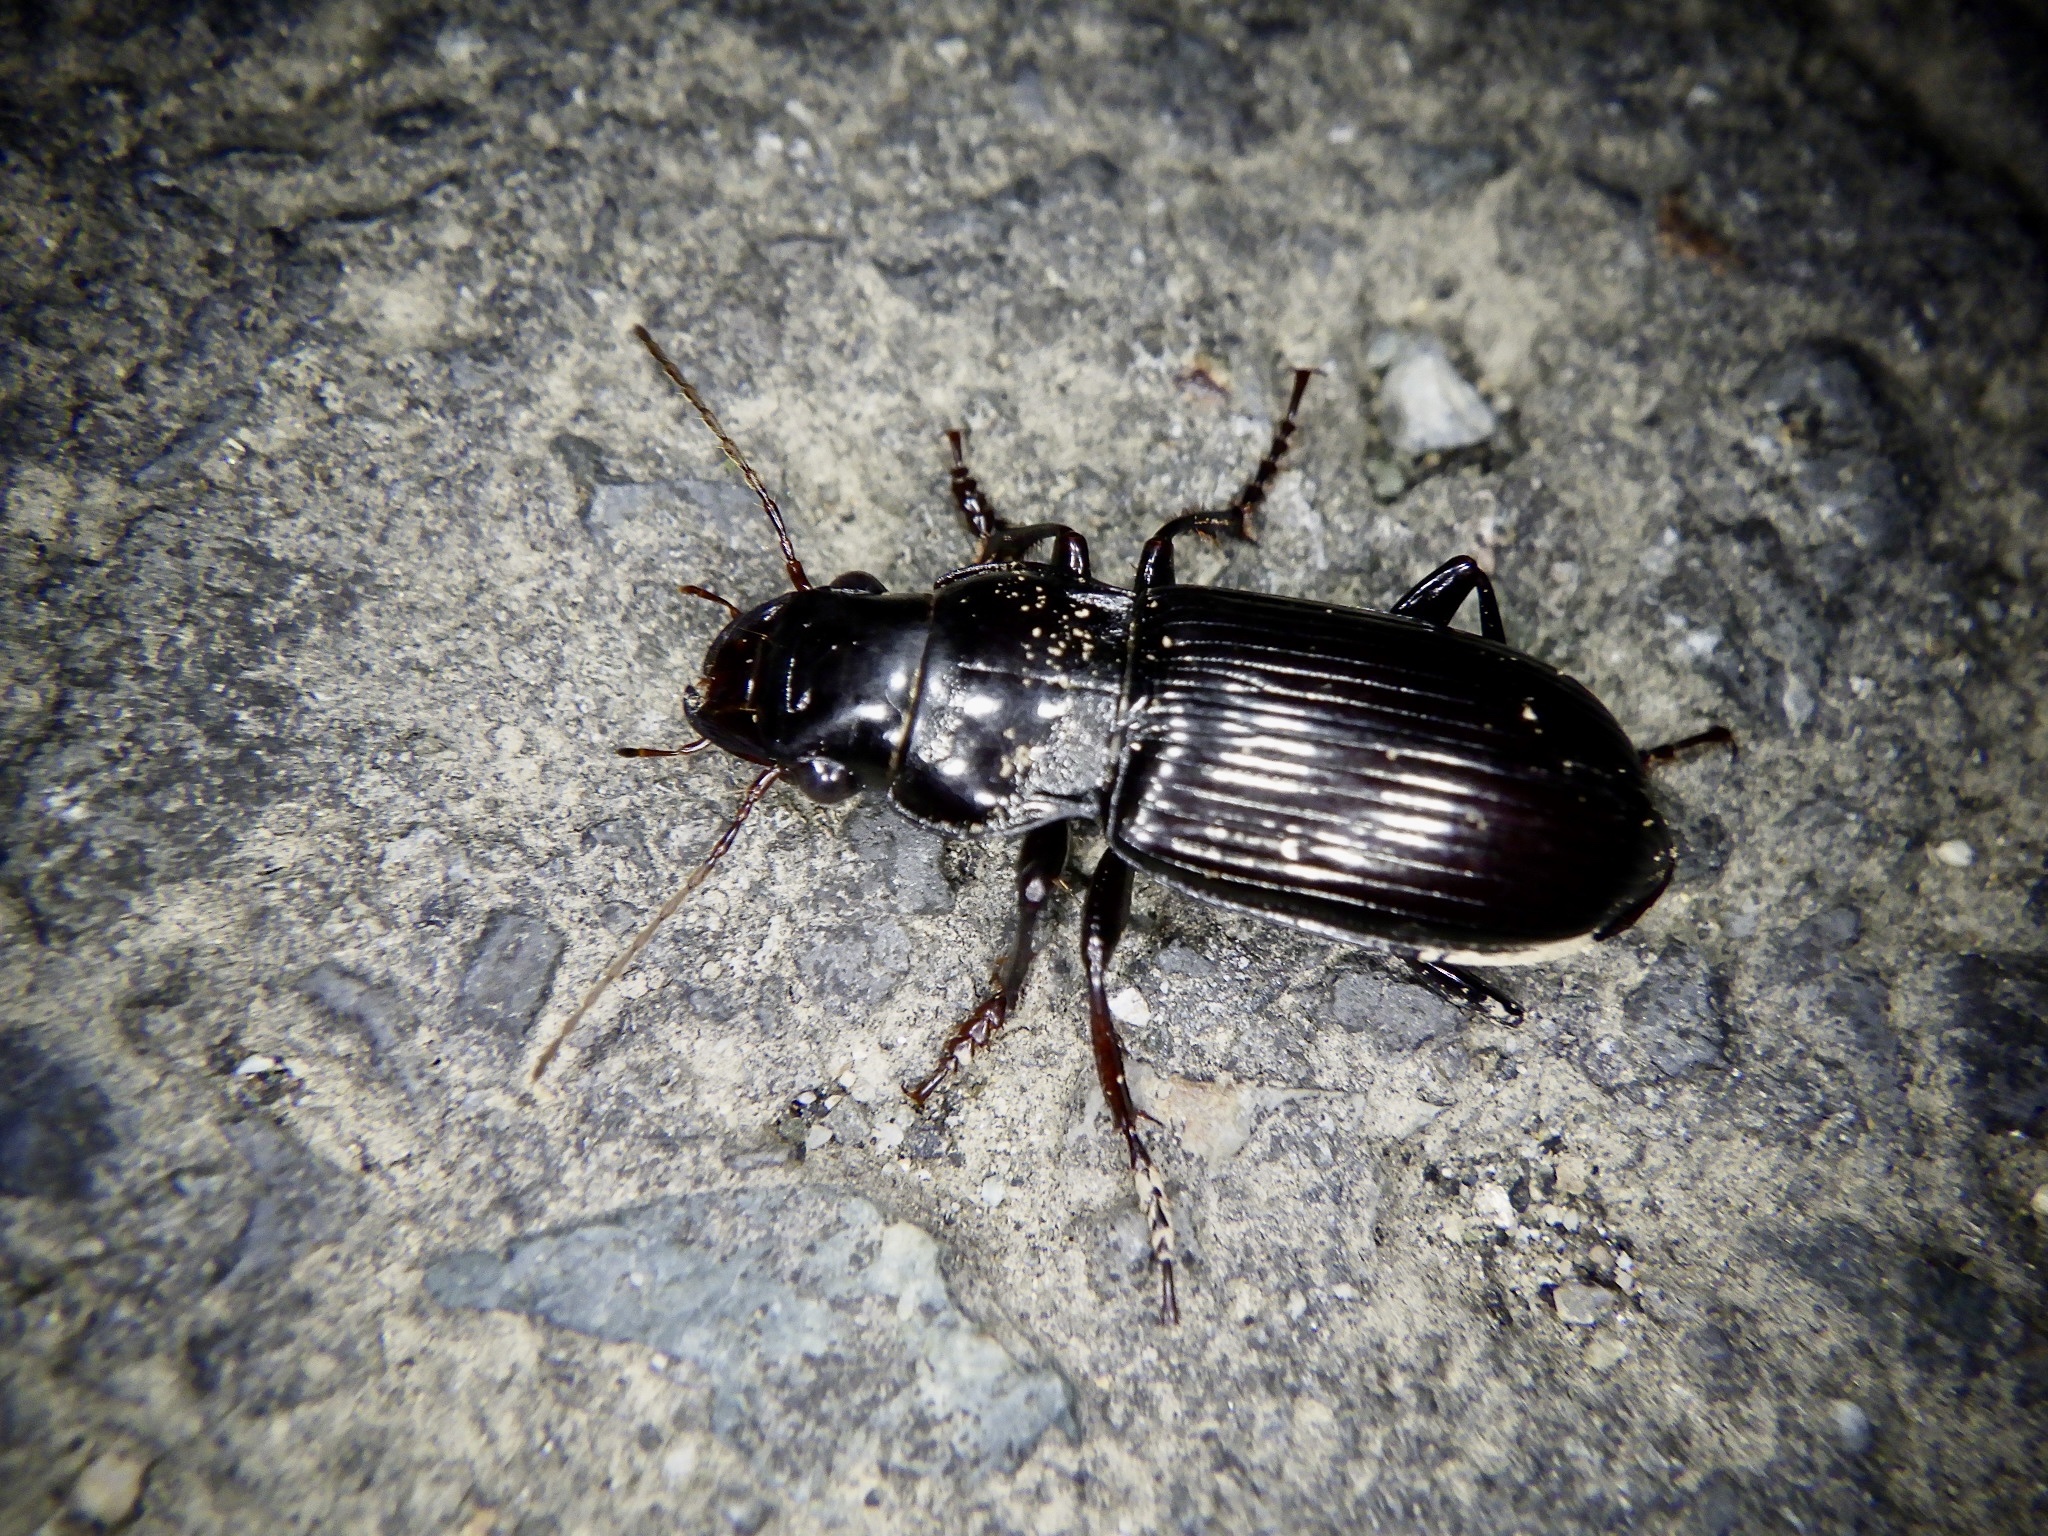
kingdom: Animalia
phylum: Arthropoda
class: Insecta
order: Coleoptera
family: Carabidae
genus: Amara
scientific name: Amara gigantea
